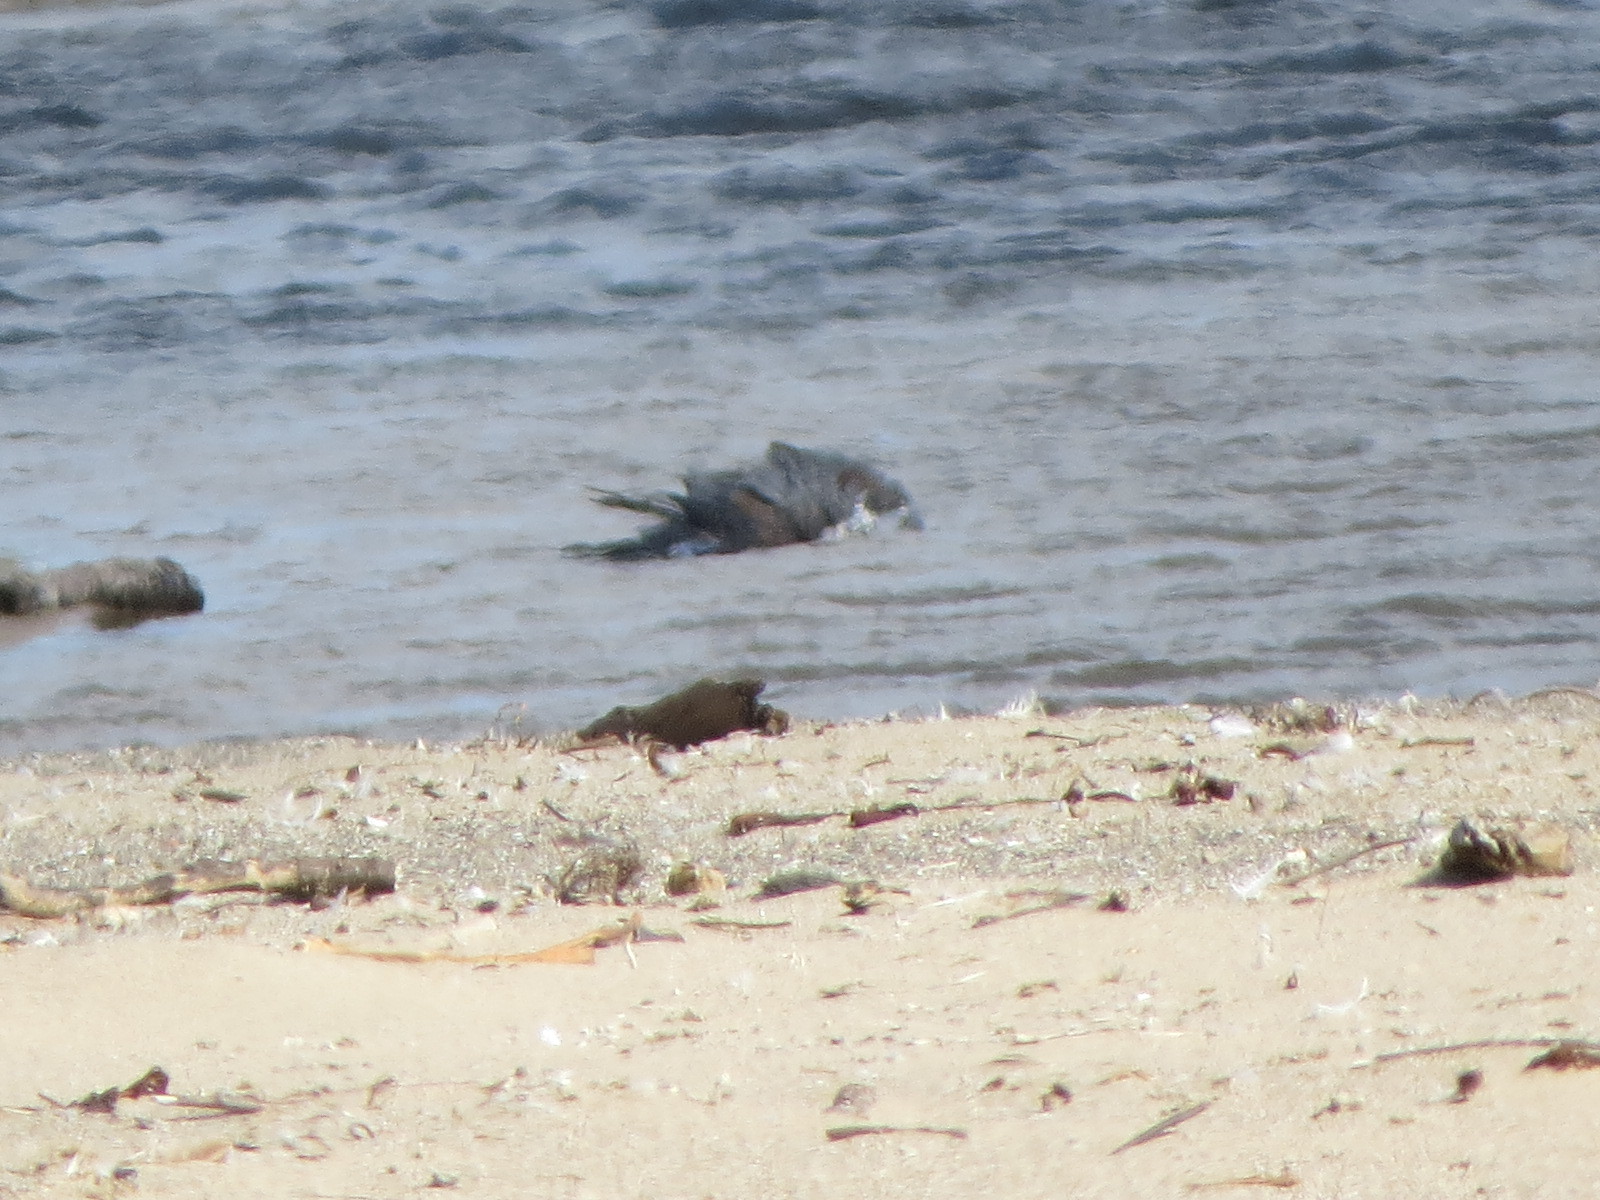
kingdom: Animalia
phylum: Chordata
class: Aves
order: Falconiformes
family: Falconidae
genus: Falco
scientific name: Falco peregrinus
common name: Peregrine falcon
